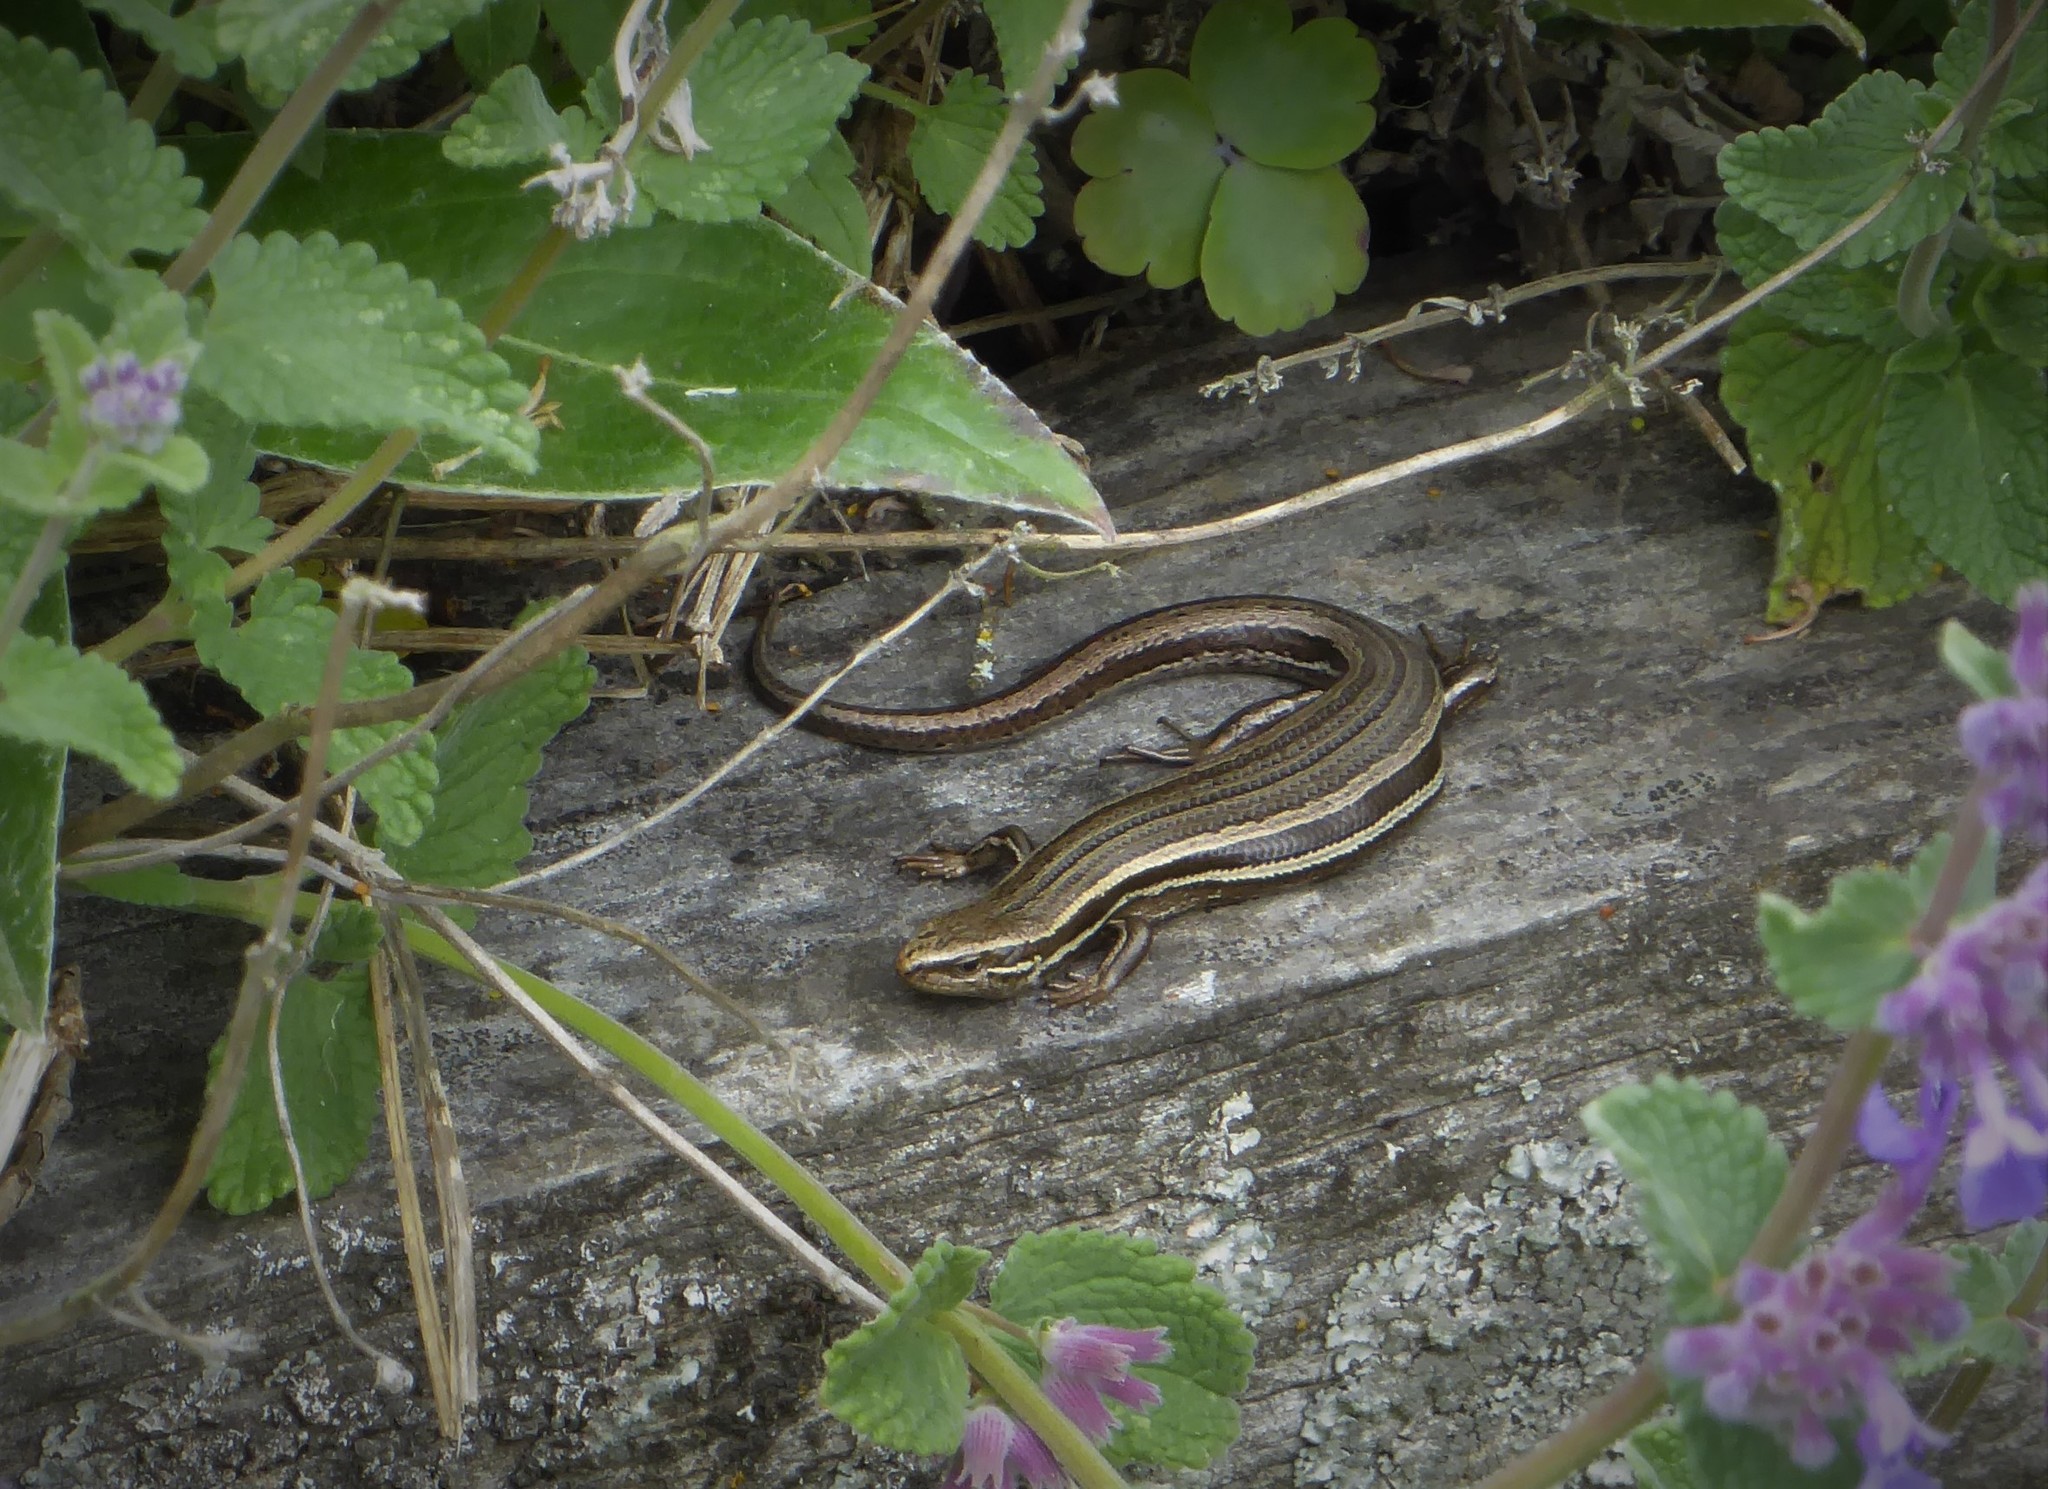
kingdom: Animalia
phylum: Chordata
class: Squamata
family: Scincidae
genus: Oligosoma
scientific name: Oligosoma polychroma
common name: Common new zealand skink
